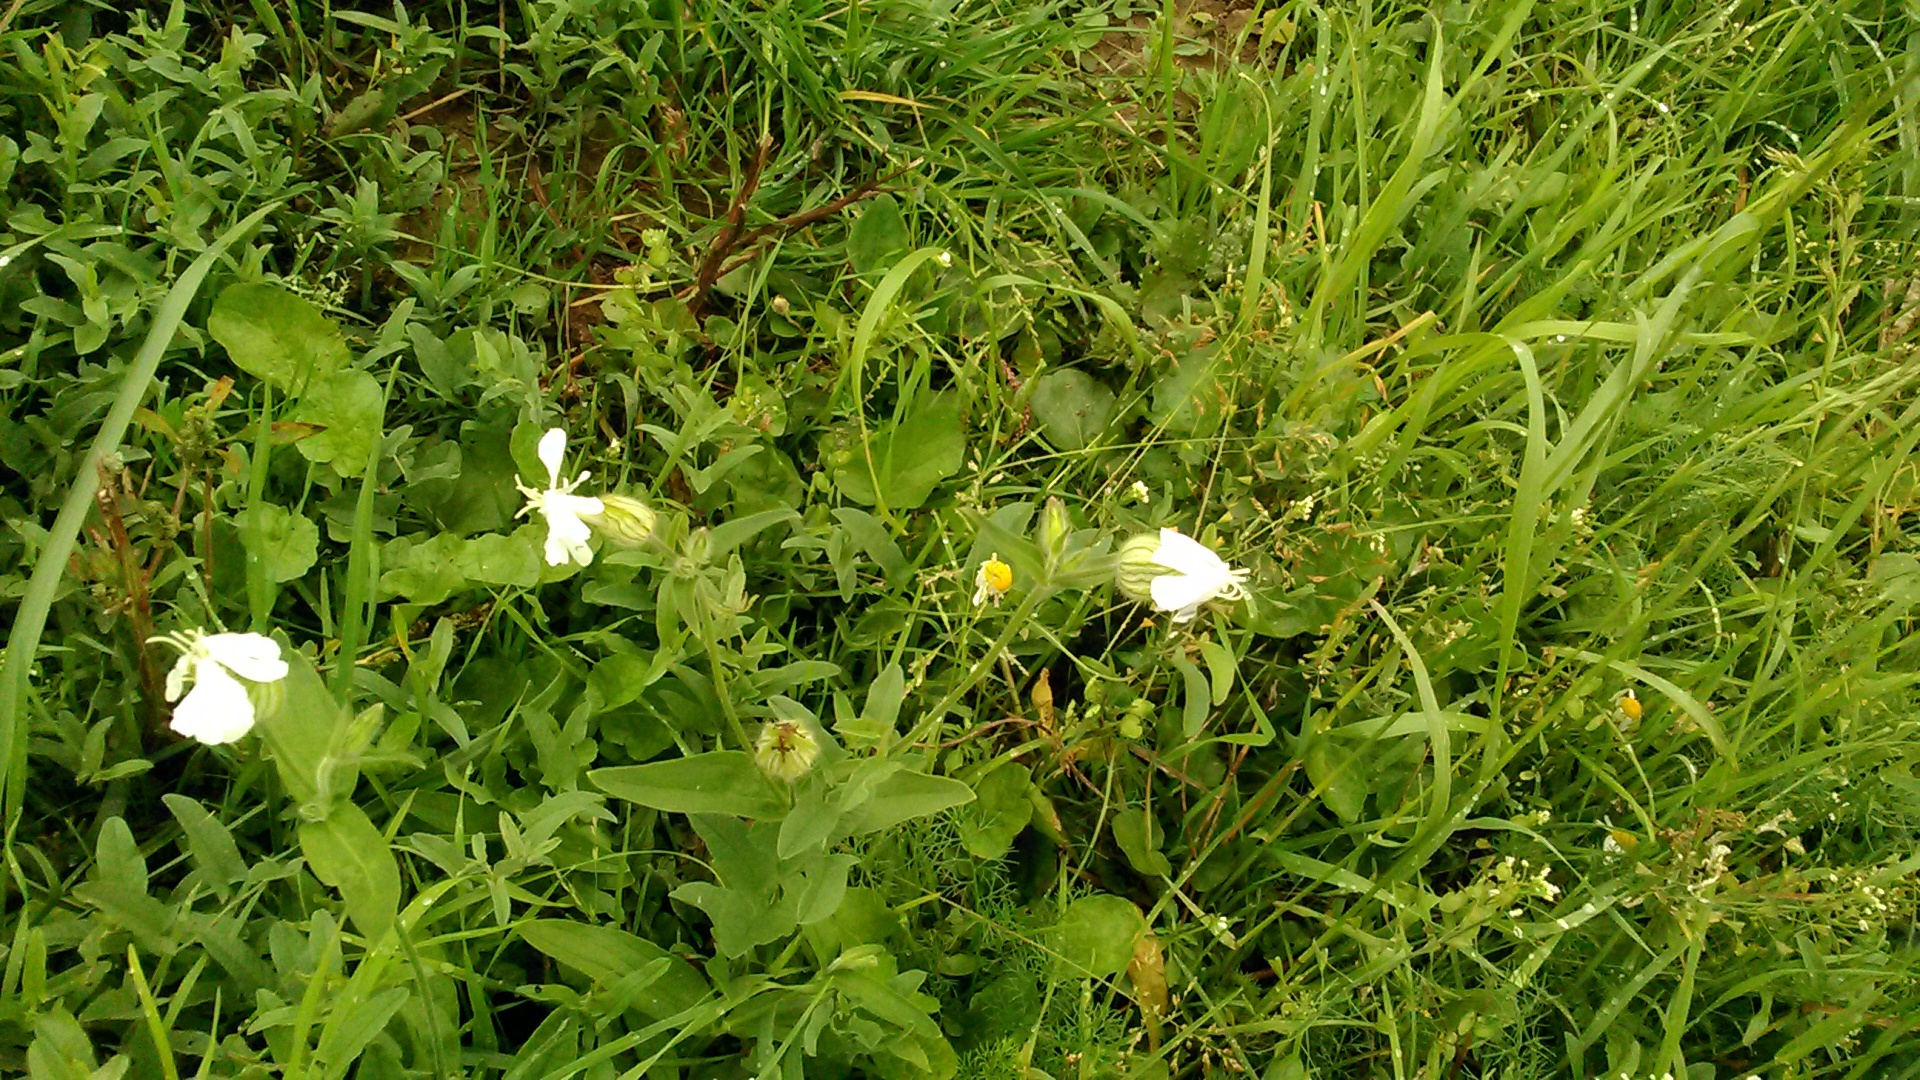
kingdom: Plantae
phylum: Tracheophyta
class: Magnoliopsida
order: Caryophyllales
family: Caryophyllaceae
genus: Silene
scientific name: Silene latifolia
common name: White campion
